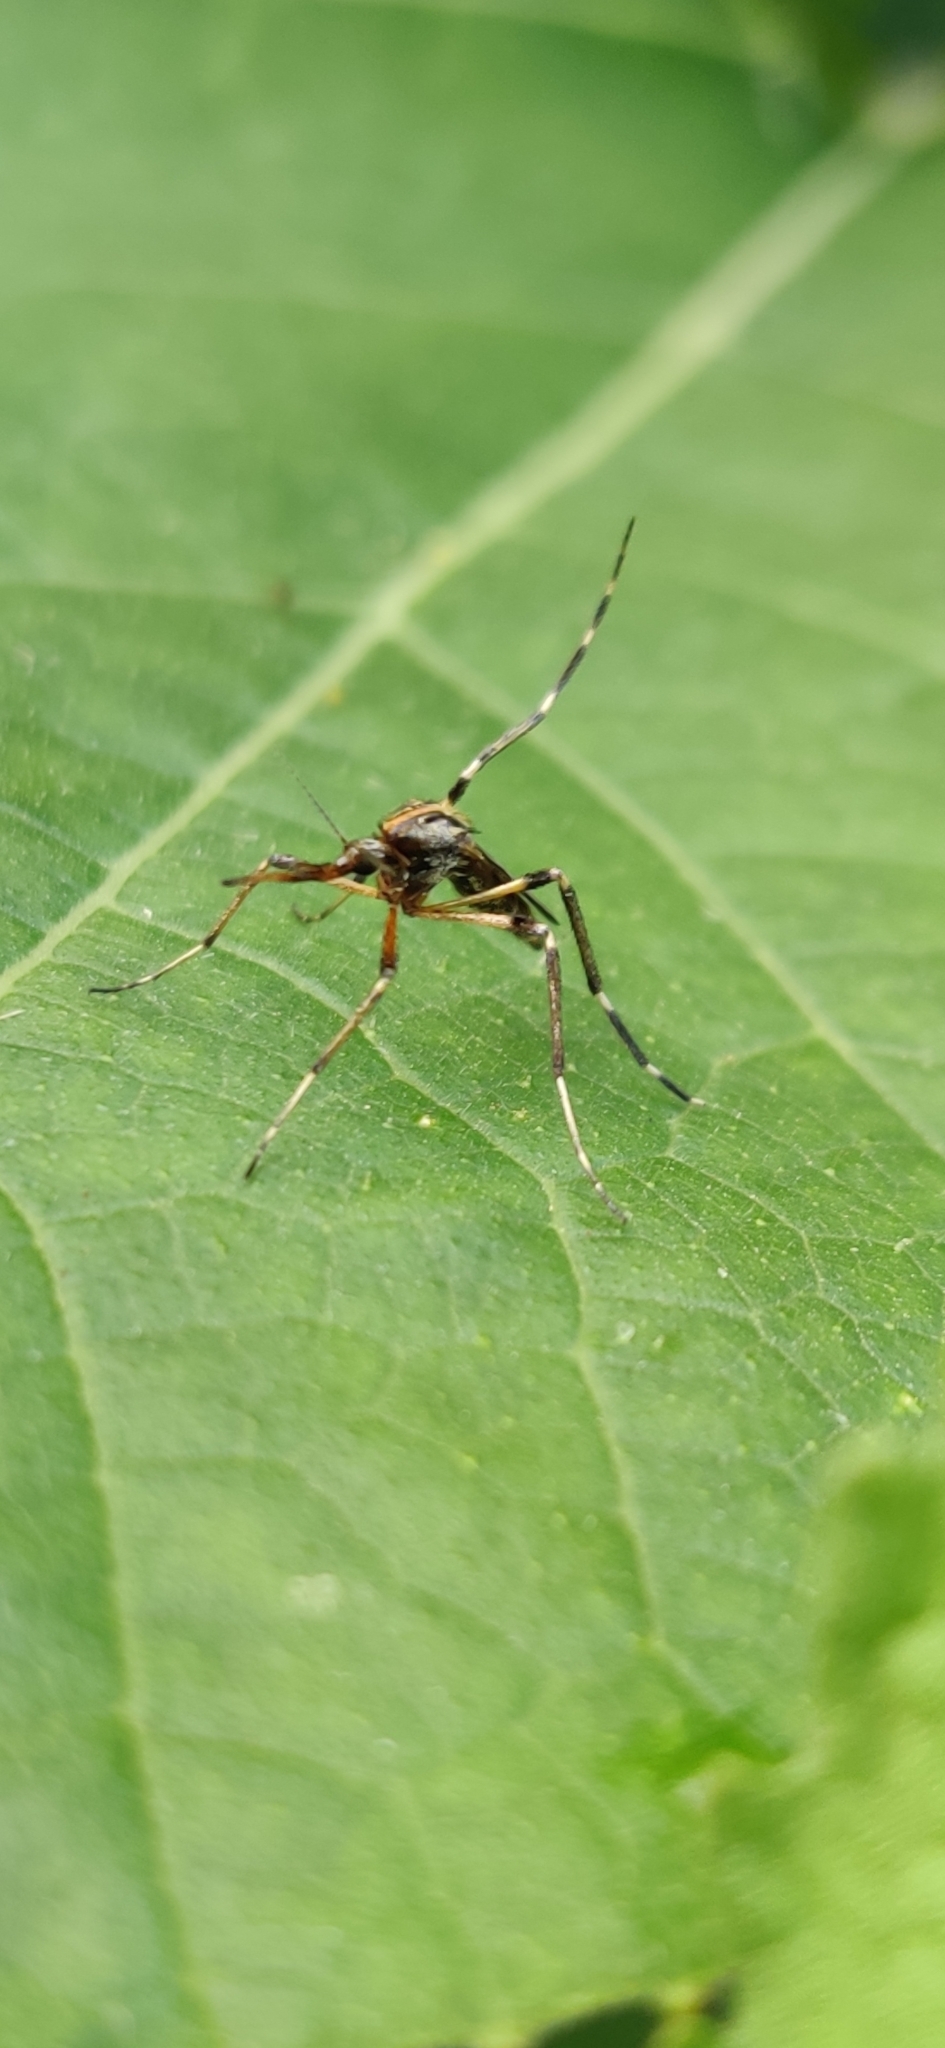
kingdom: Animalia
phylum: Arthropoda
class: Insecta
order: Diptera
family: Culicidae
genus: Psorophora
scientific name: Psorophora ciliata
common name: Gallinipper
